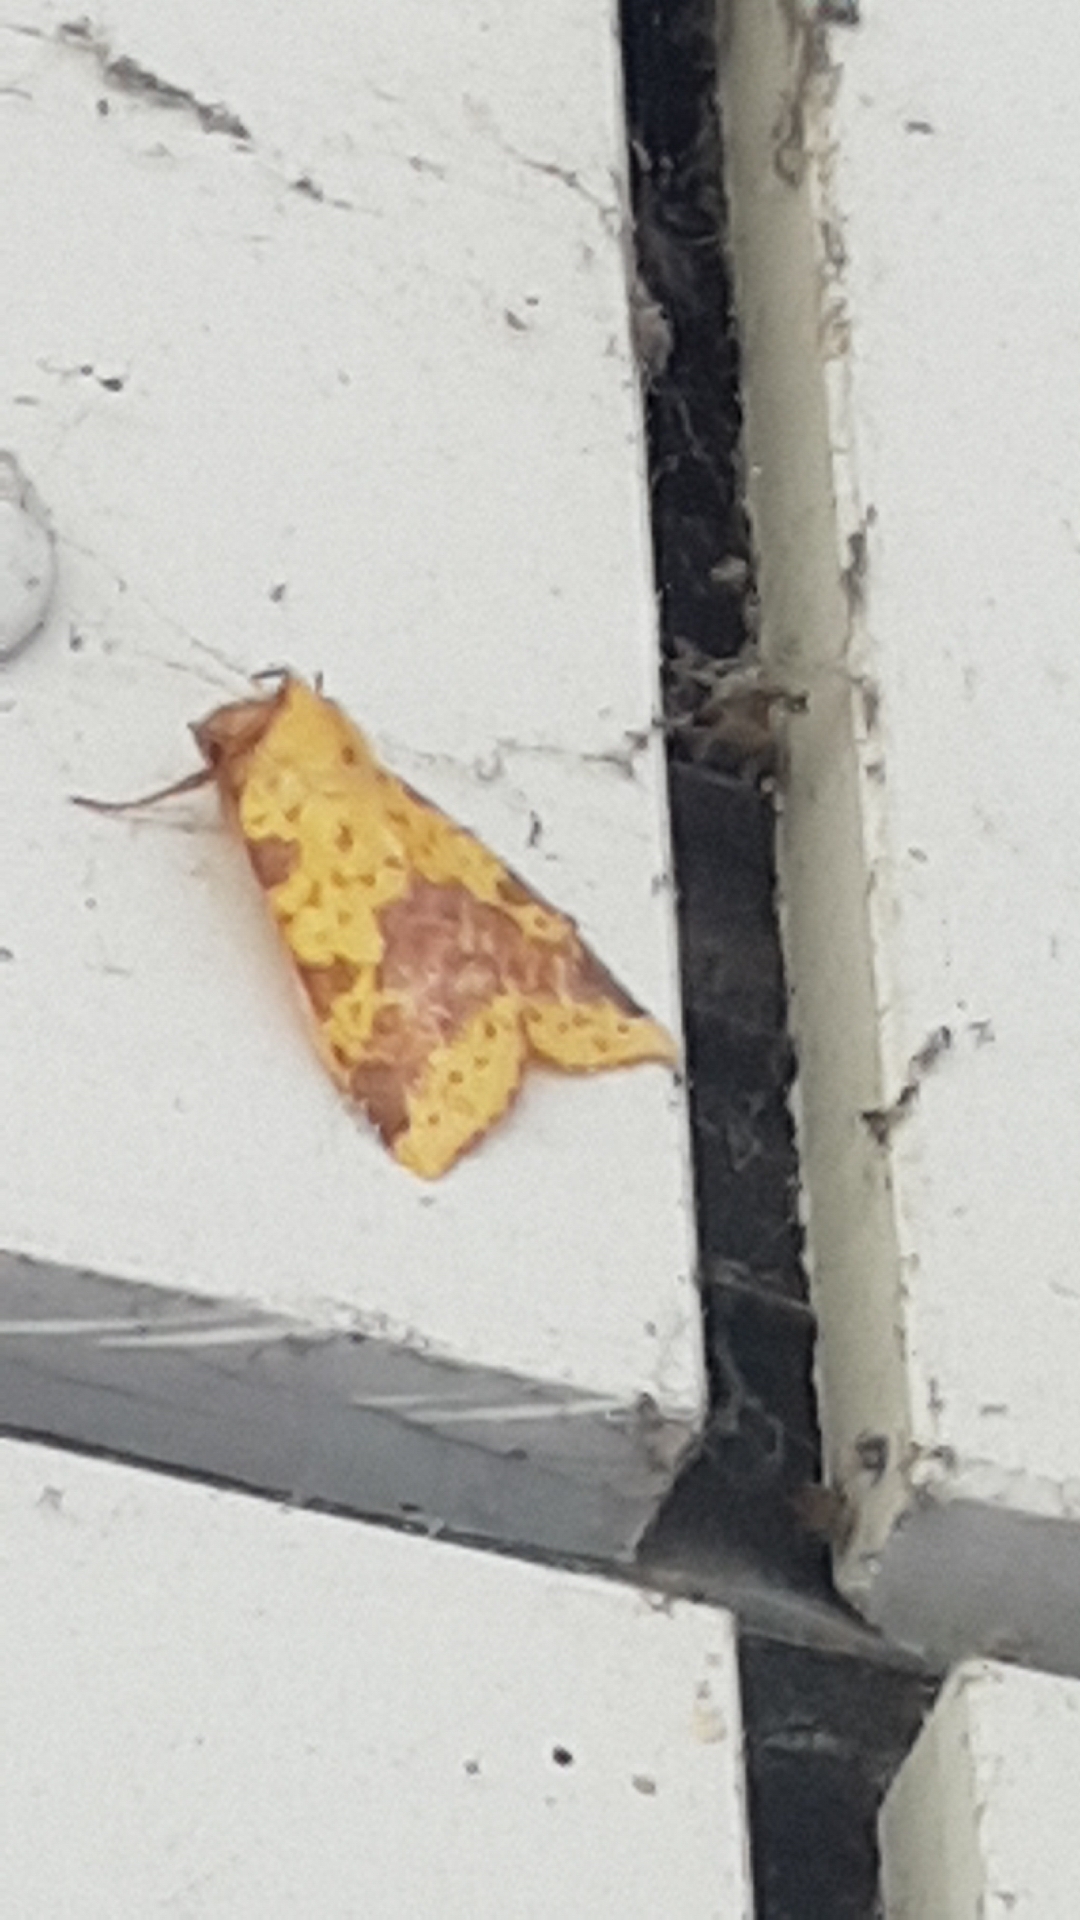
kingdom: Animalia
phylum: Arthropoda
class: Insecta
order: Lepidoptera
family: Noctuidae
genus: Xanthia
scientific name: Xanthia togata
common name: Pink-barred sallow
